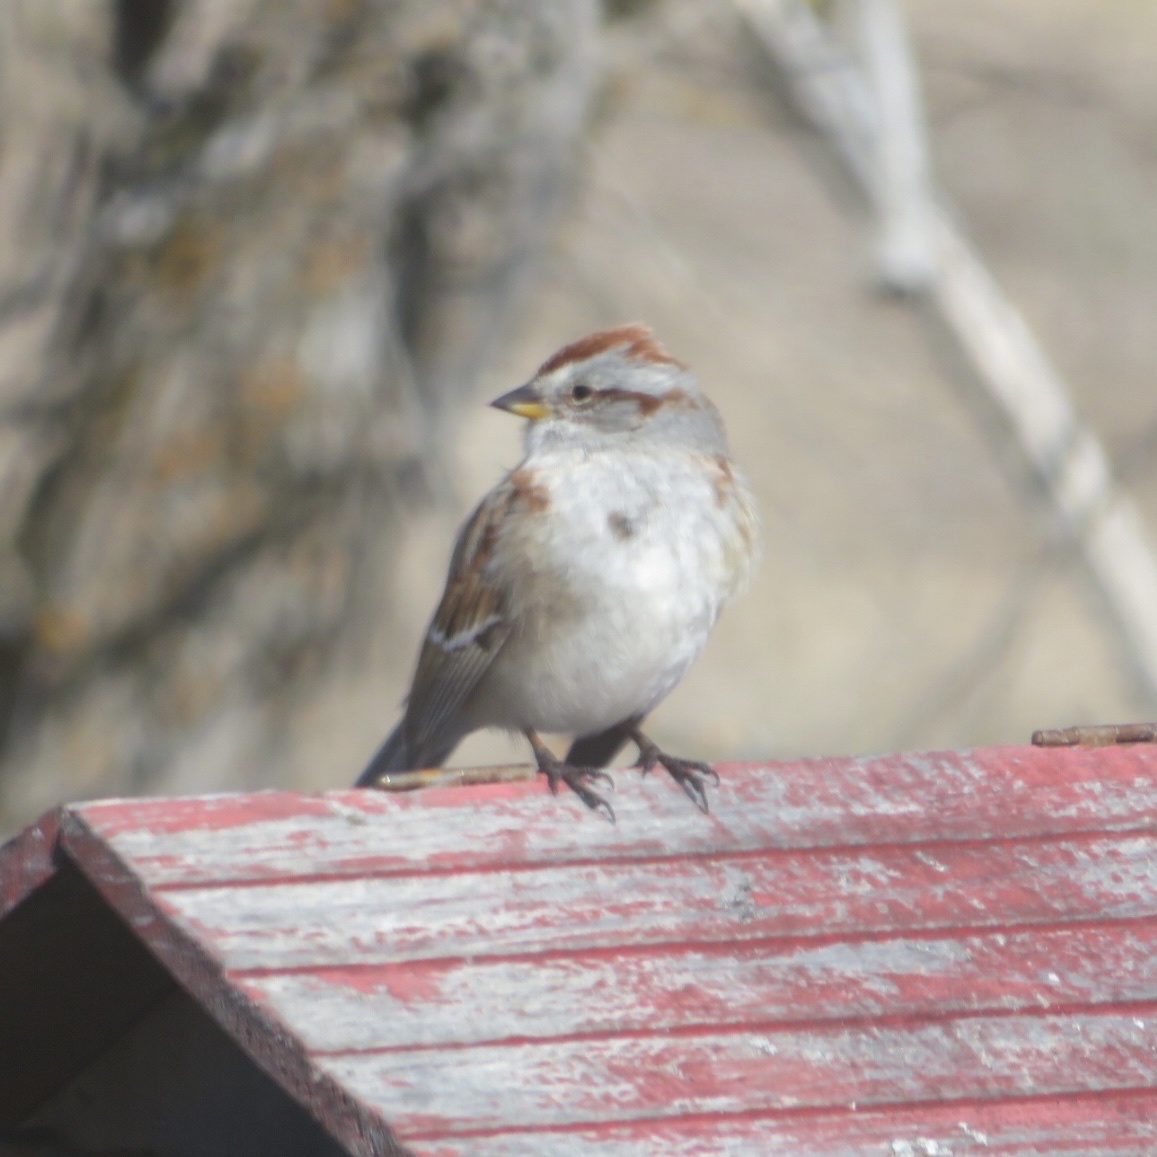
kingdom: Animalia
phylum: Chordata
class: Aves
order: Passeriformes
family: Passerellidae
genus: Spizelloides
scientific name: Spizelloides arborea
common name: American tree sparrow
